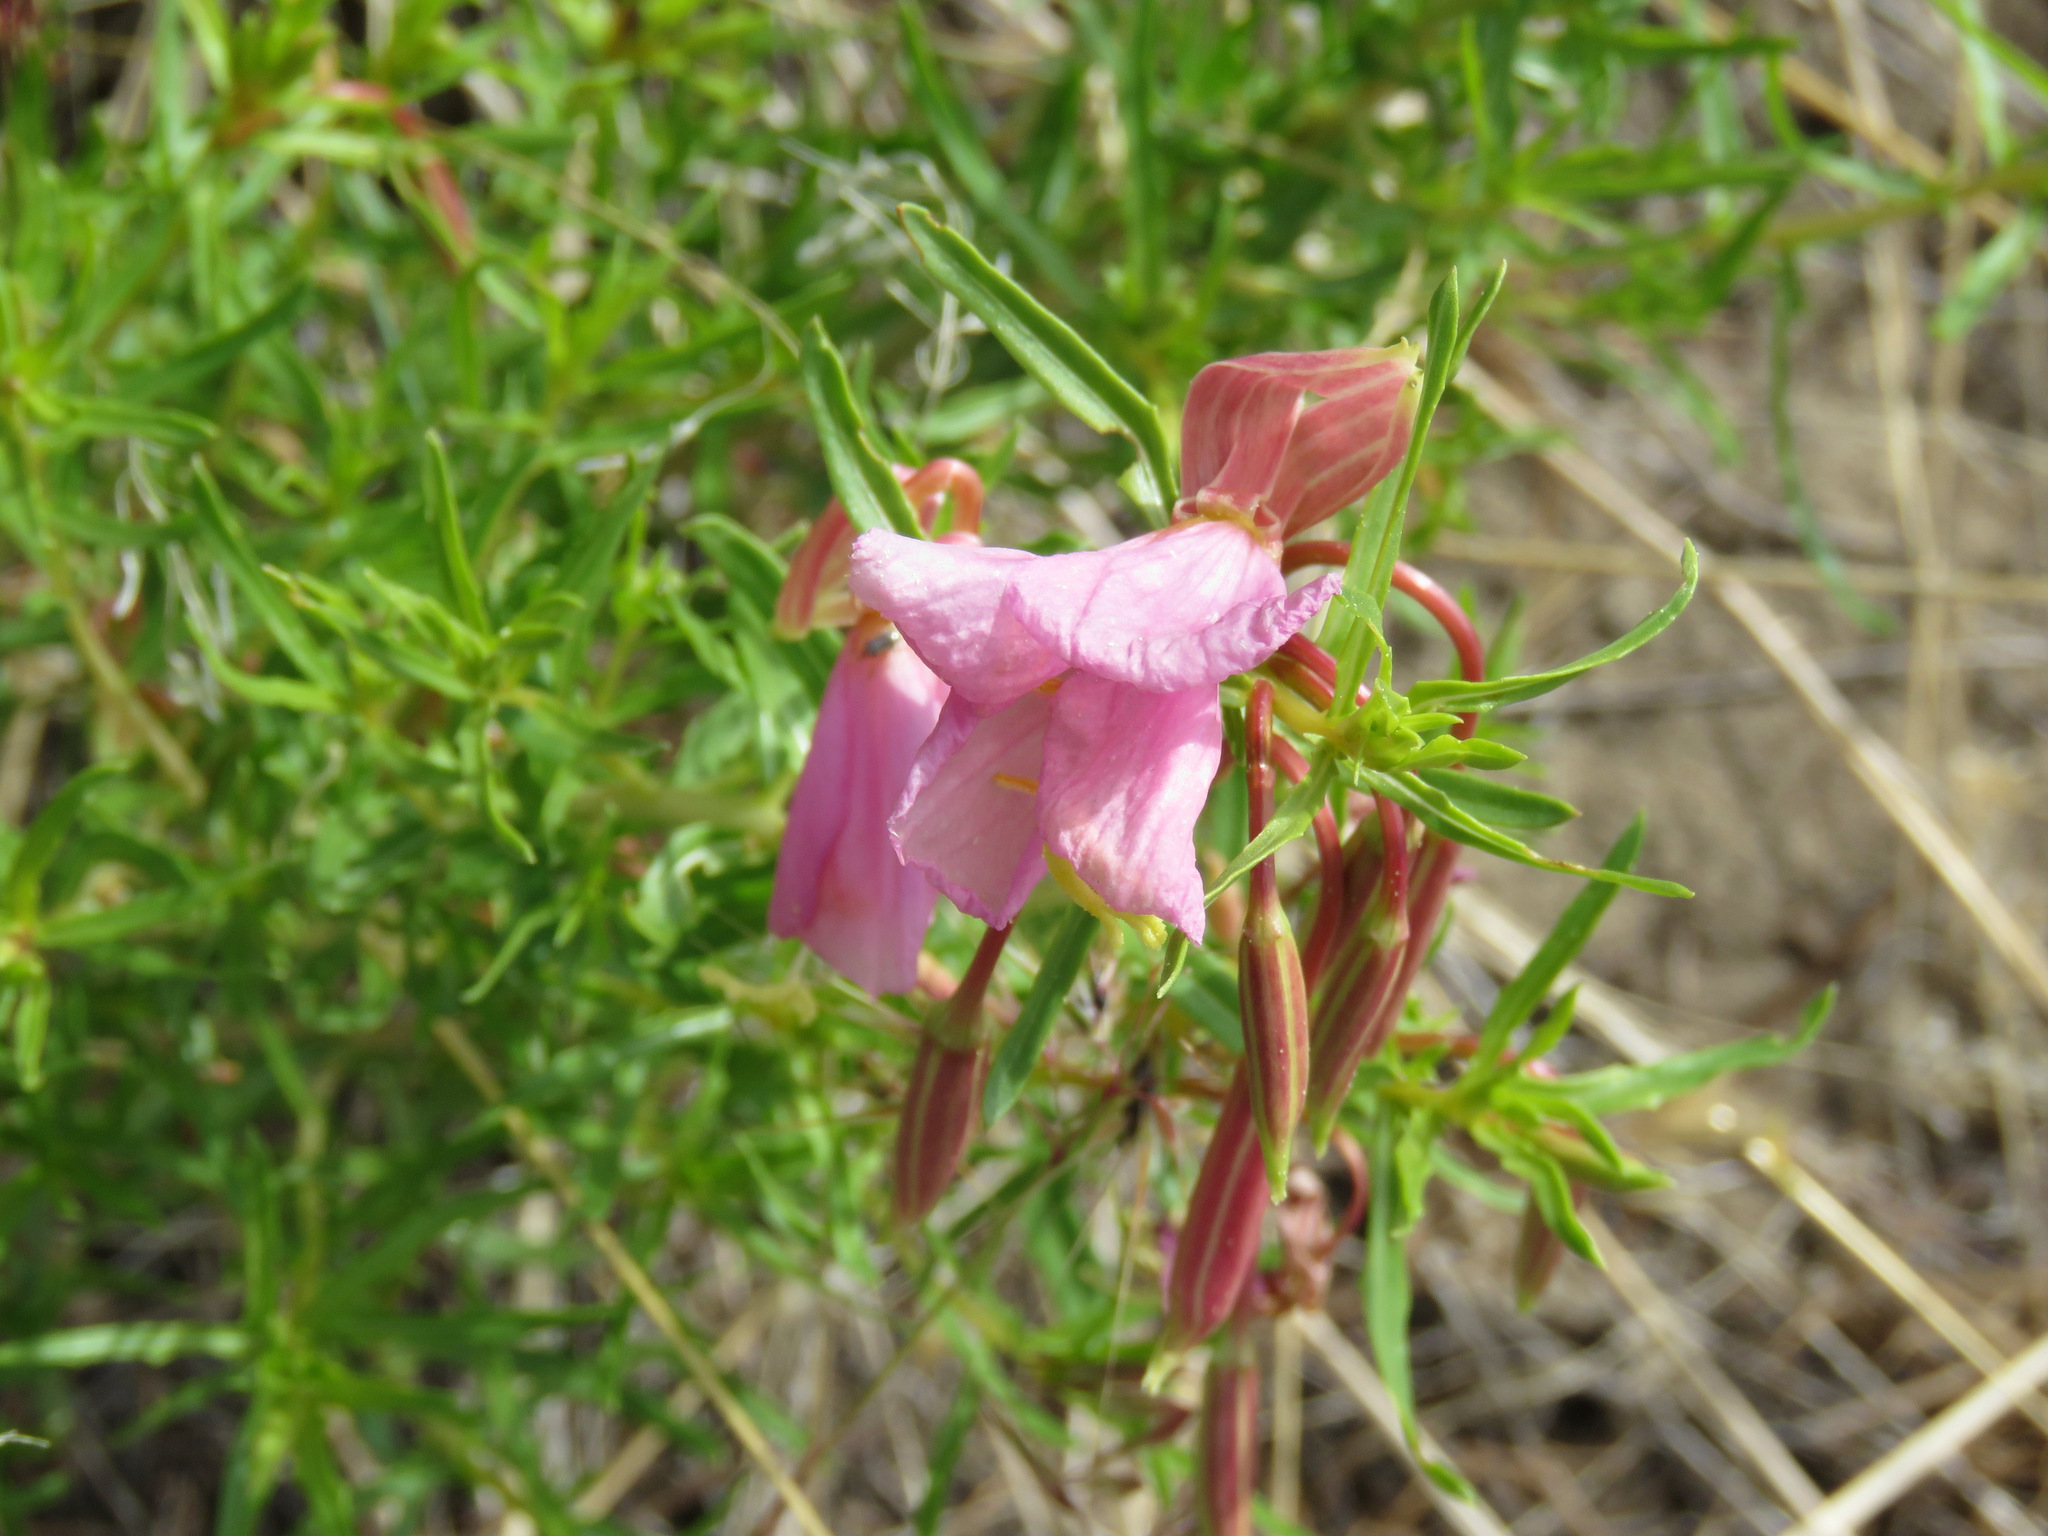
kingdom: Plantae
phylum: Tracheophyta
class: Magnoliopsida
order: Myrtales
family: Onagraceae
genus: Oenothera
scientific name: Oenothera pallida
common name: Pale evening-primrose
